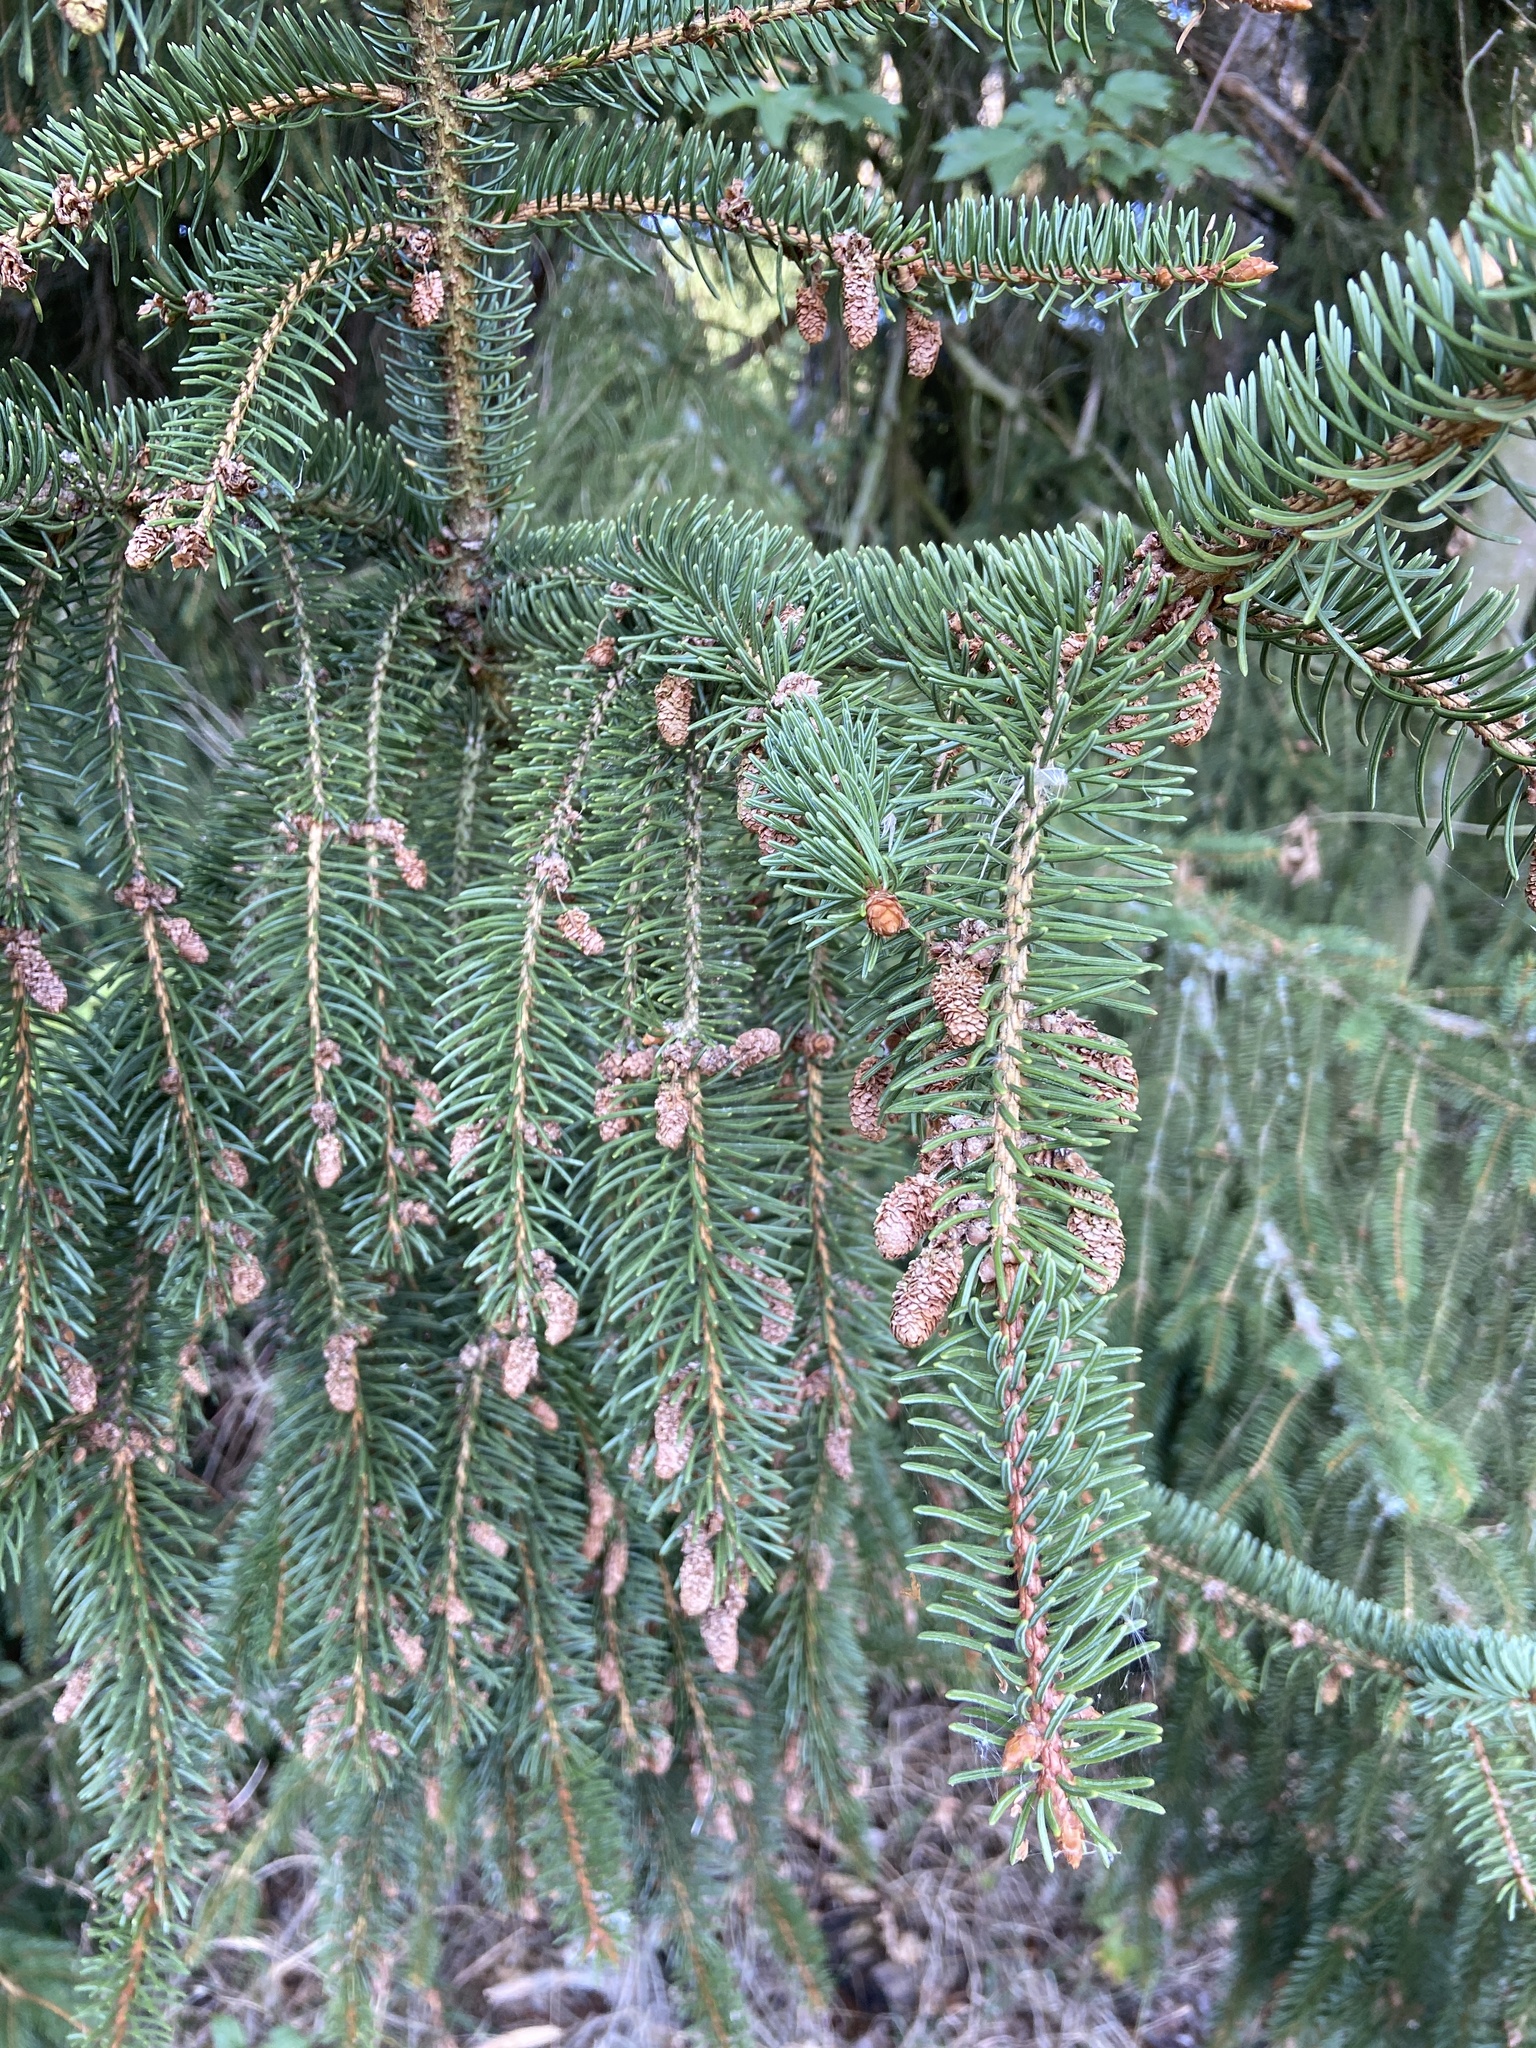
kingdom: Plantae
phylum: Tracheophyta
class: Pinopsida
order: Pinales
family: Pinaceae
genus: Picea
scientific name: Picea abies
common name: Norway spruce
